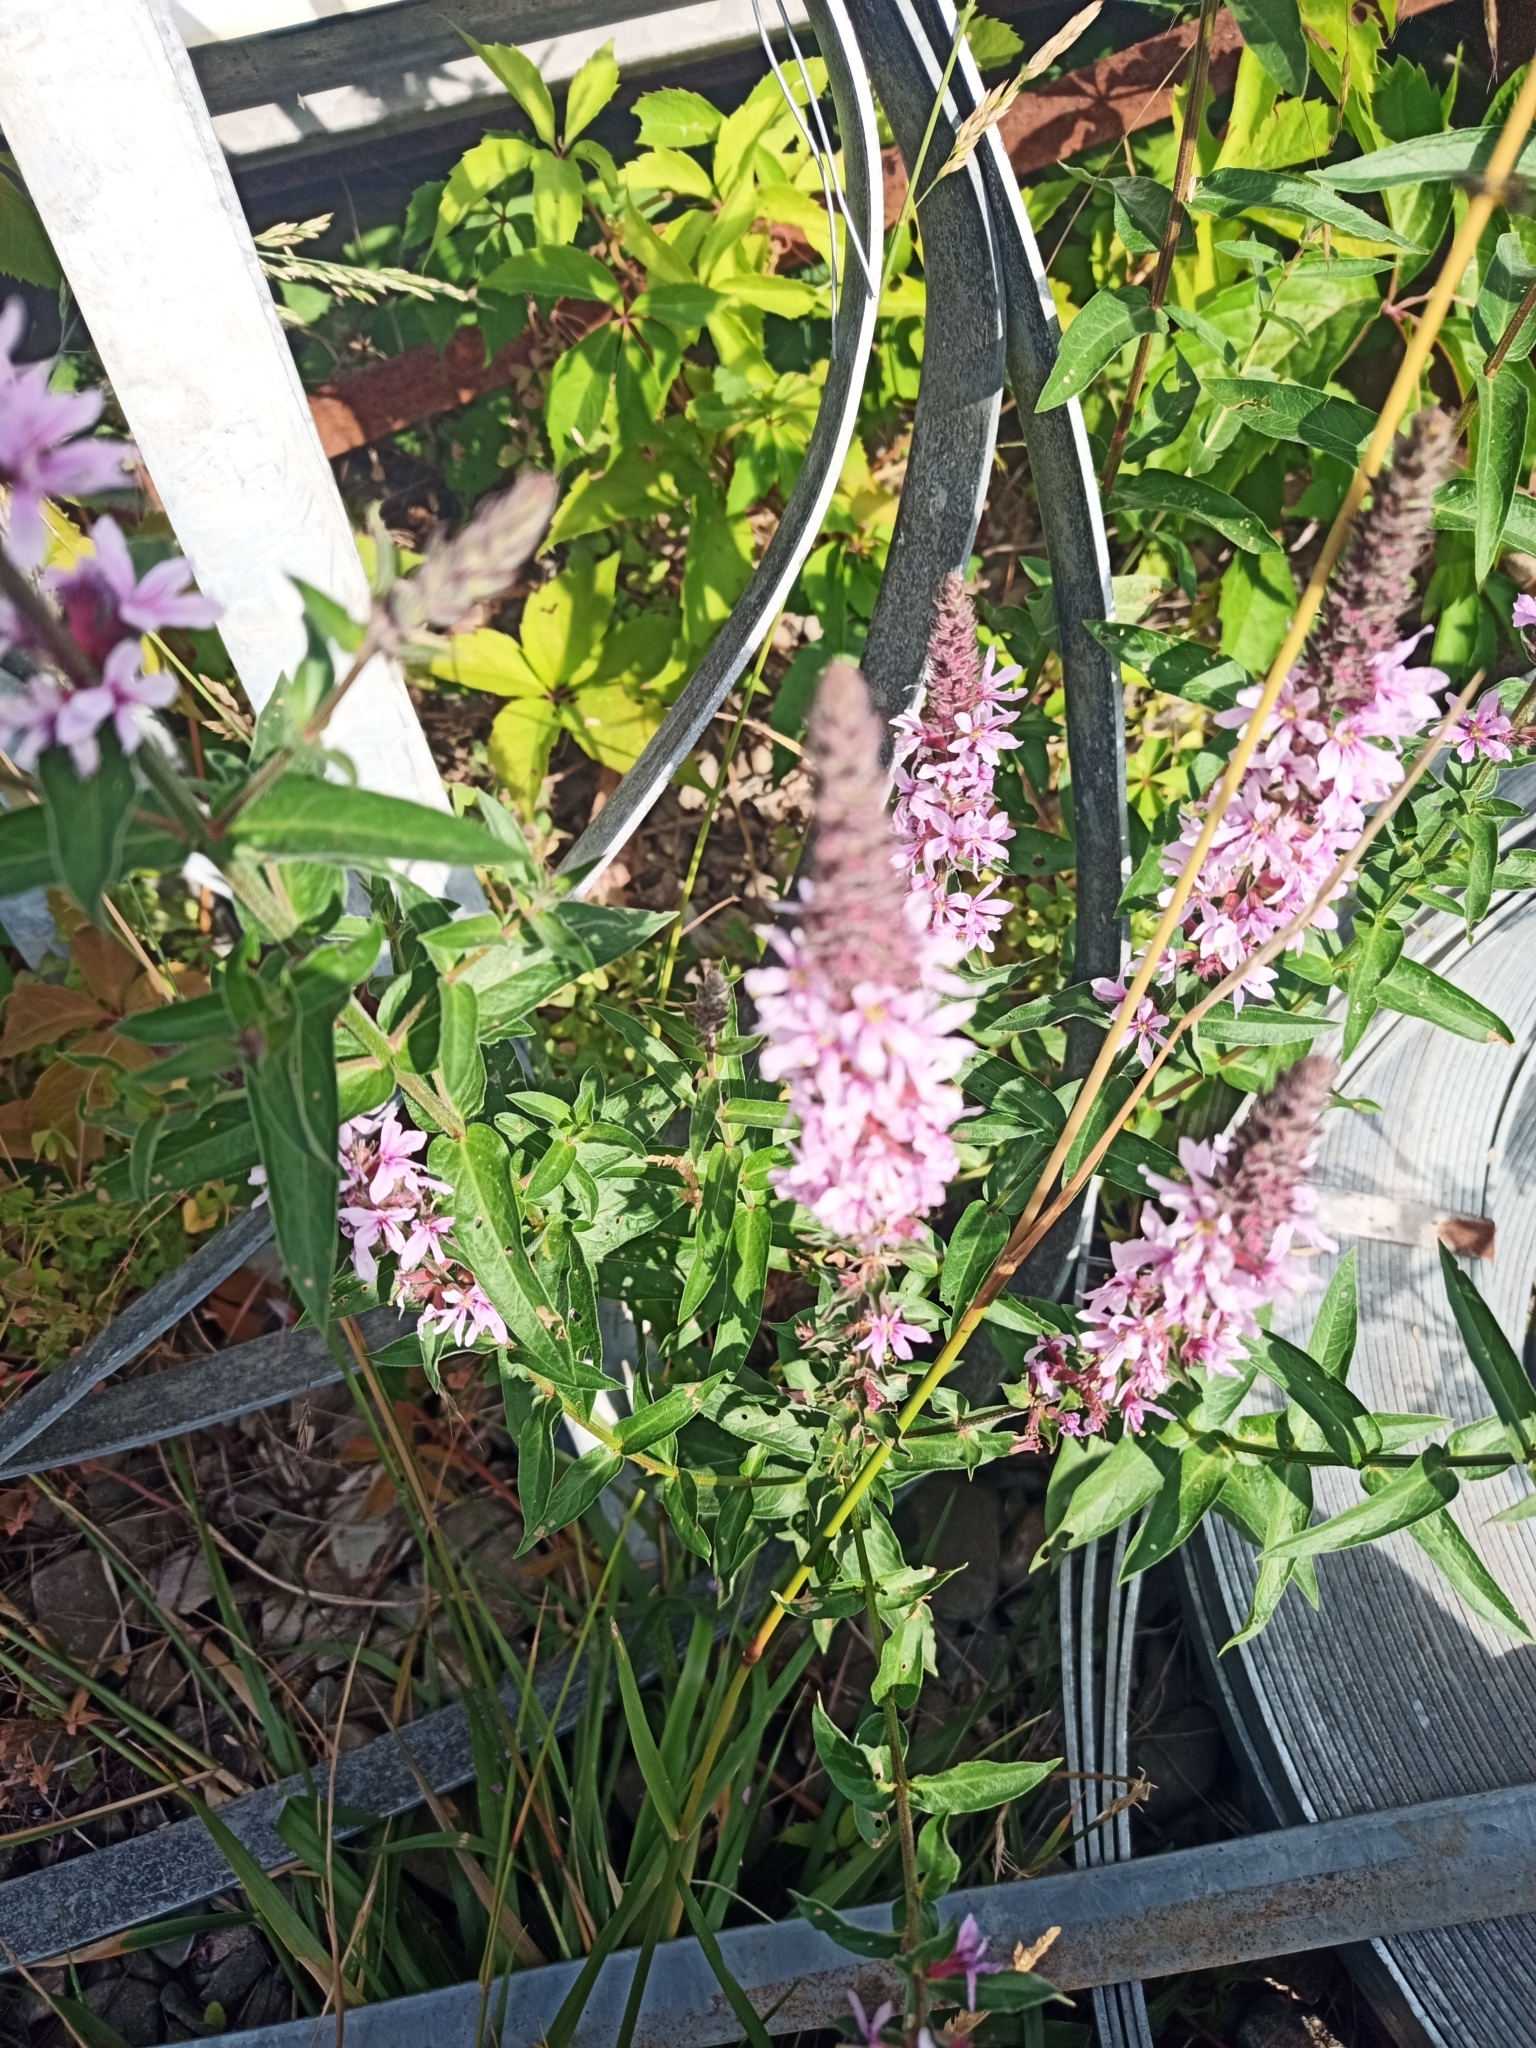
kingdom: Plantae
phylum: Tracheophyta
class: Magnoliopsida
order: Myrtales
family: Lythraceae
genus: Lythrum
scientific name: Lythrum salicaria
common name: Purple loosestrife
